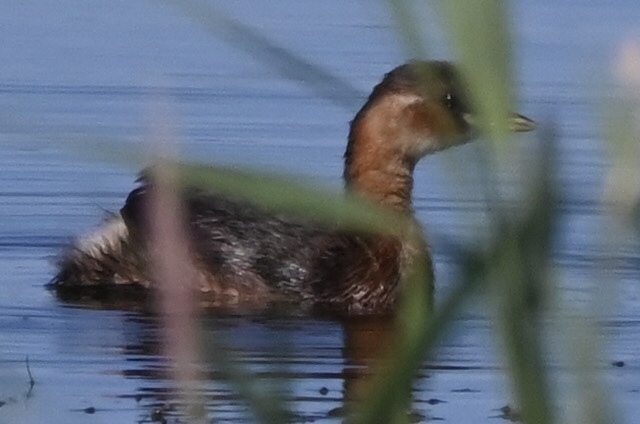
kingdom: Animalia
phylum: Chordata
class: Aves
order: Podicipediformes
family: Podicipedidae
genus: Tachybaptus
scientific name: Tachybaptus ruficollis
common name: Little grebe
